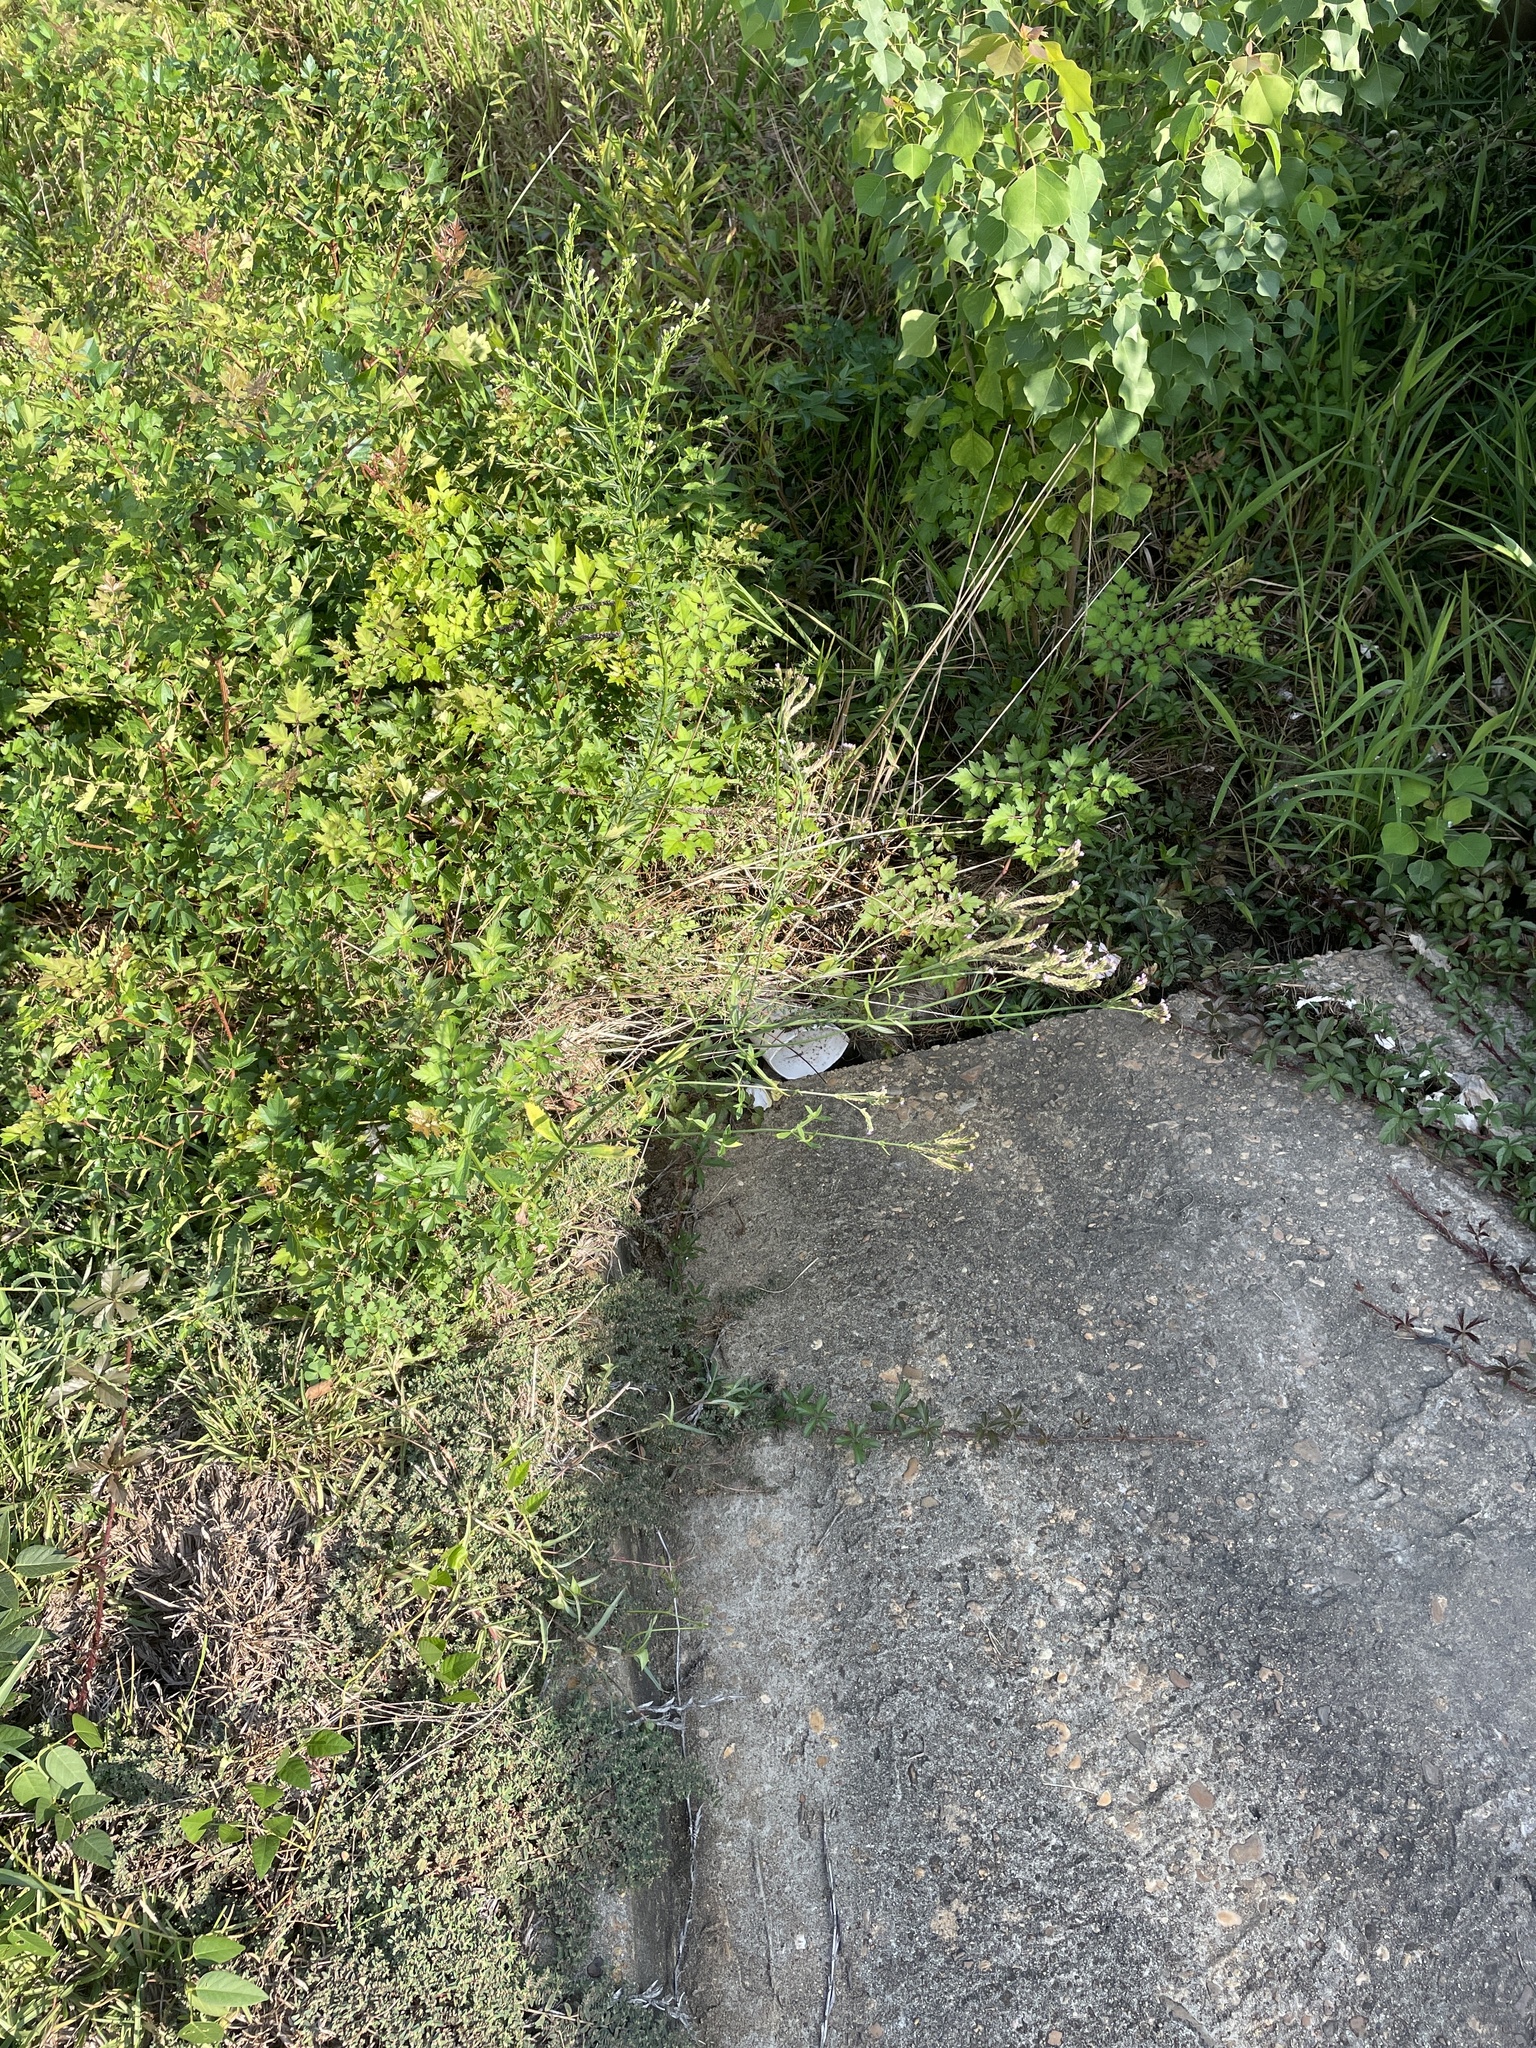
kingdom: Plantae
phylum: Tracheophyta
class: Magnoliopsida
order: Lamiales
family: Verbenaceae
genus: Verbena
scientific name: Verbena brasiliensis
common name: Brazilian vervain
